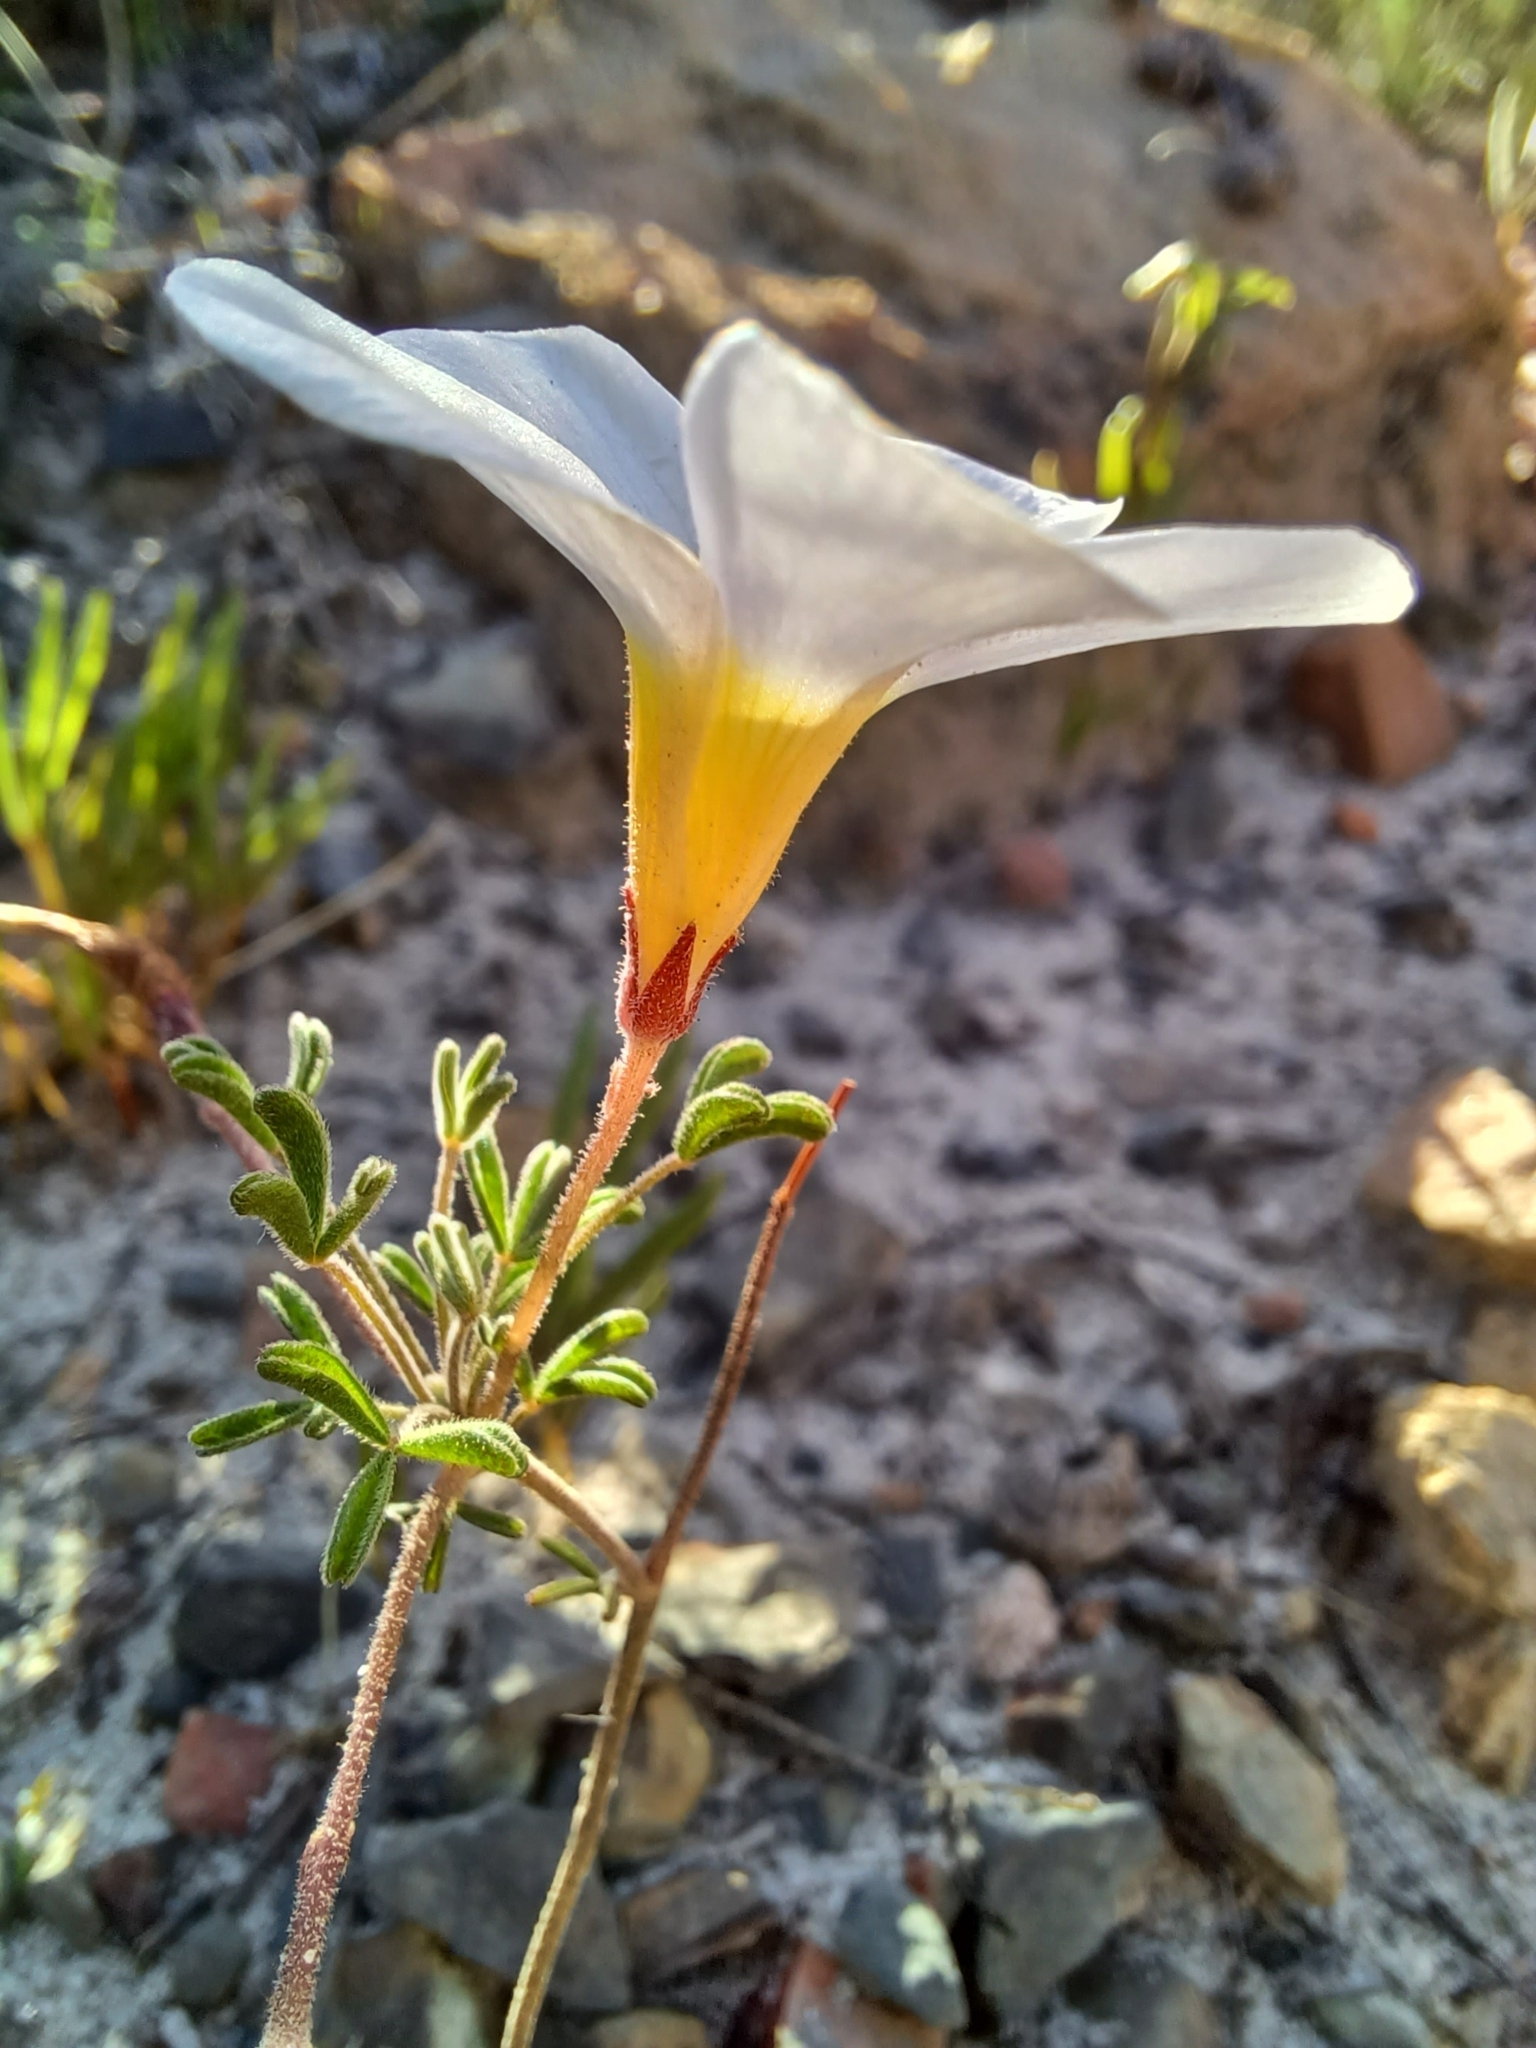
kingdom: Plantae
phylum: Tracheophyta
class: Magnoliopsida
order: Oxalidales
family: Oxalidaceae
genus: Oxalis
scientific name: Oxalis ciliaris
